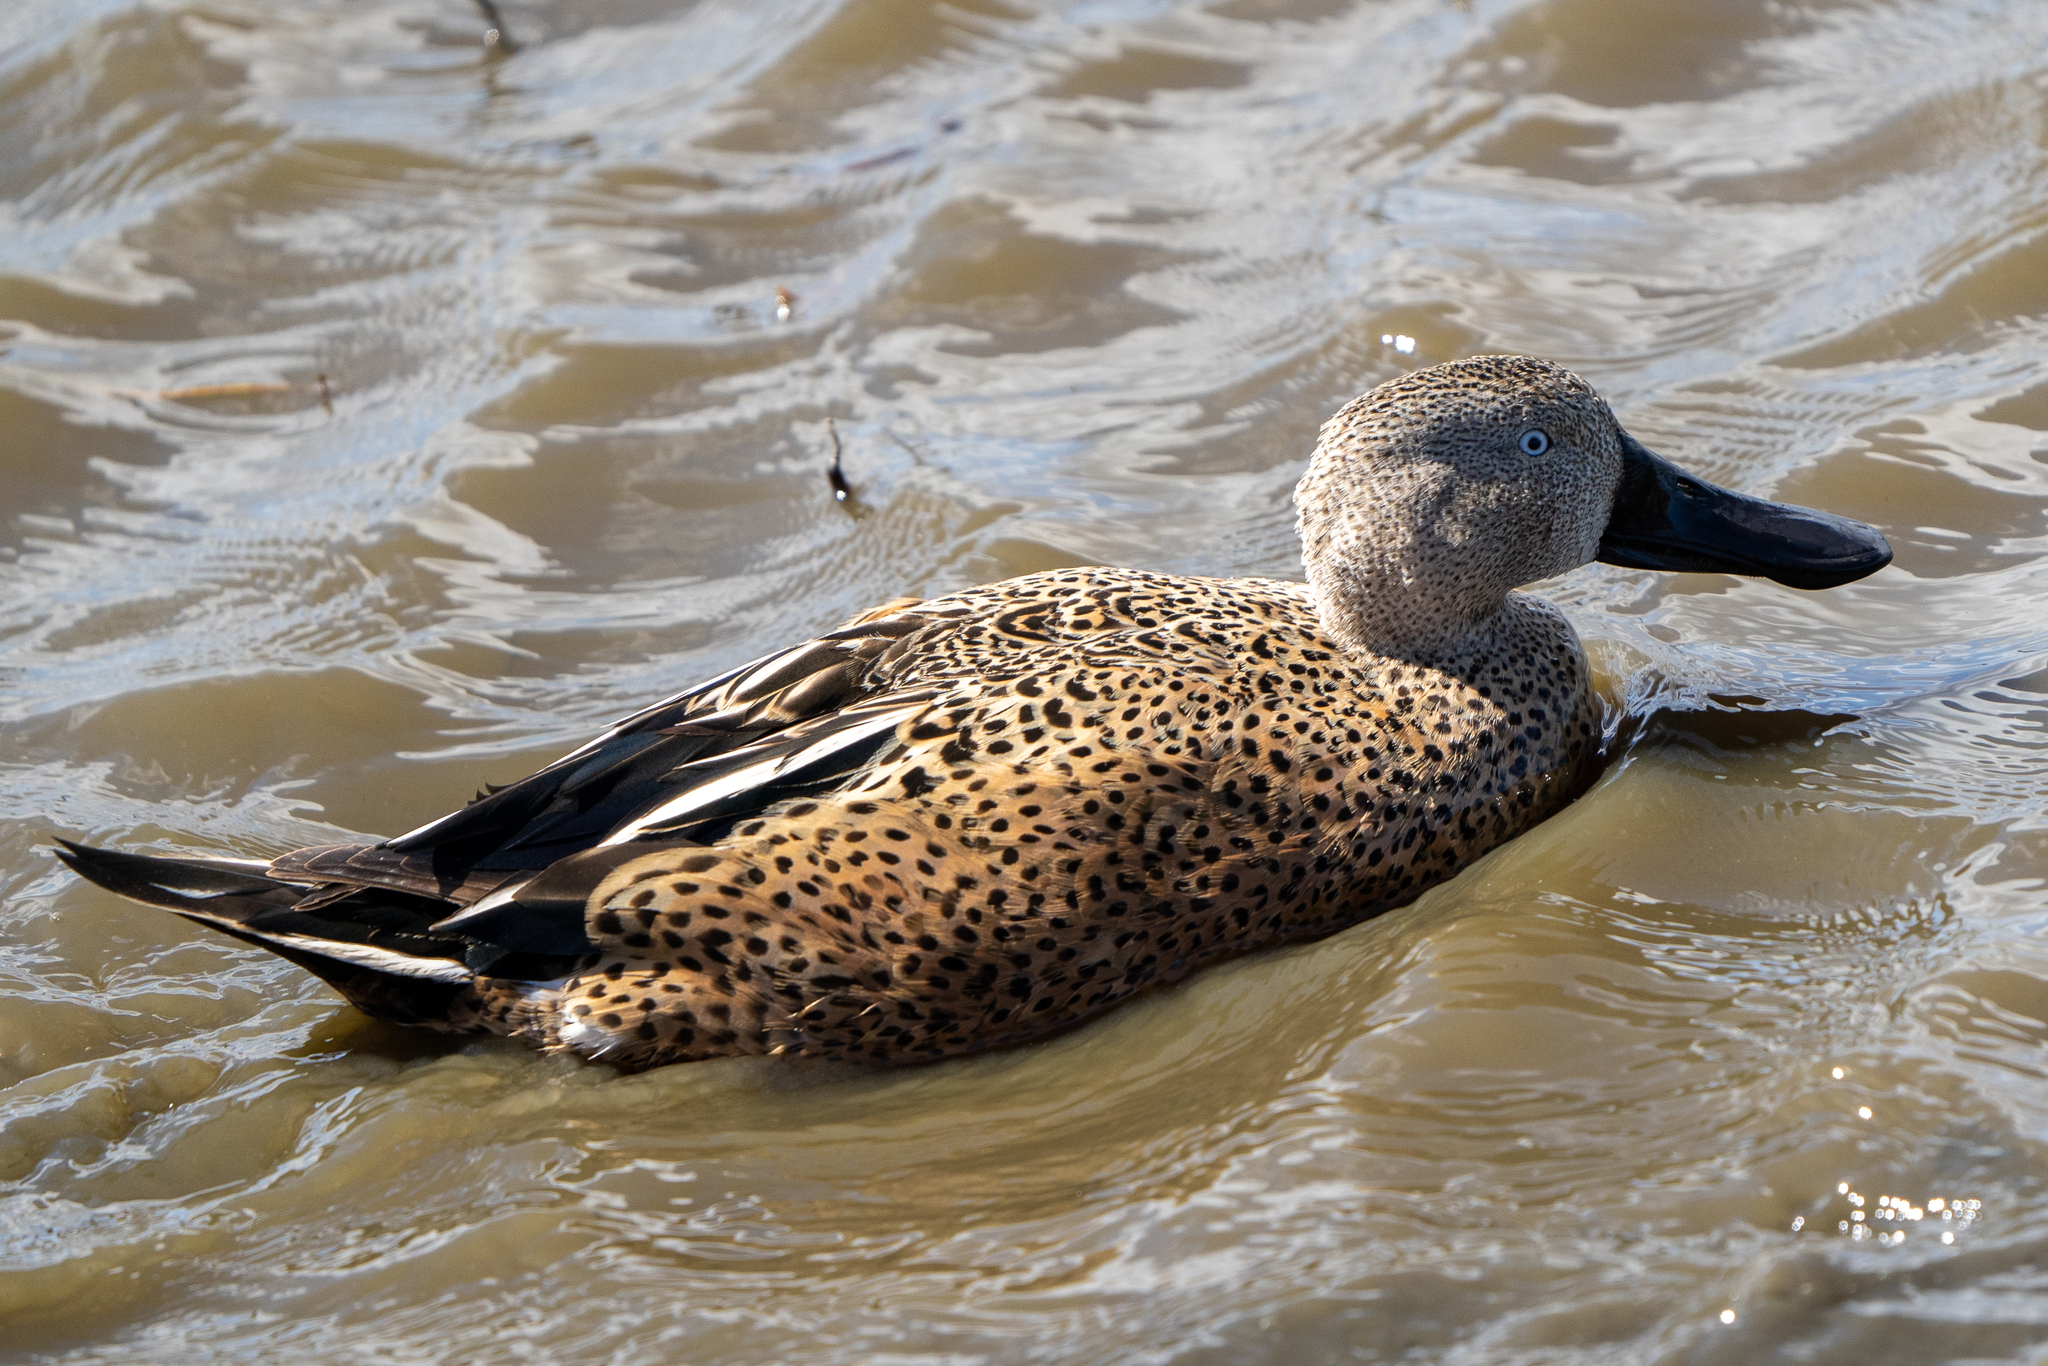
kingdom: Animalia
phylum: Chordata
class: Aves
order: Anseriformes
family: Anatidae
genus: Spatula
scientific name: Spatula platalea
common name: Red shoveler
